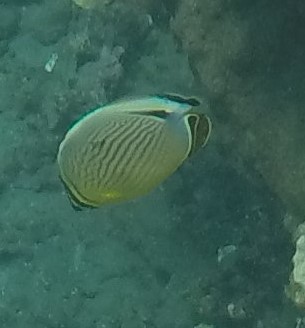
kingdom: Animalia
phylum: Chordata
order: Perciformes
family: Chaetodontidae
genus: Chaetodon
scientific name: Chaetodon lunulatus
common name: Redfin butterflyfish
